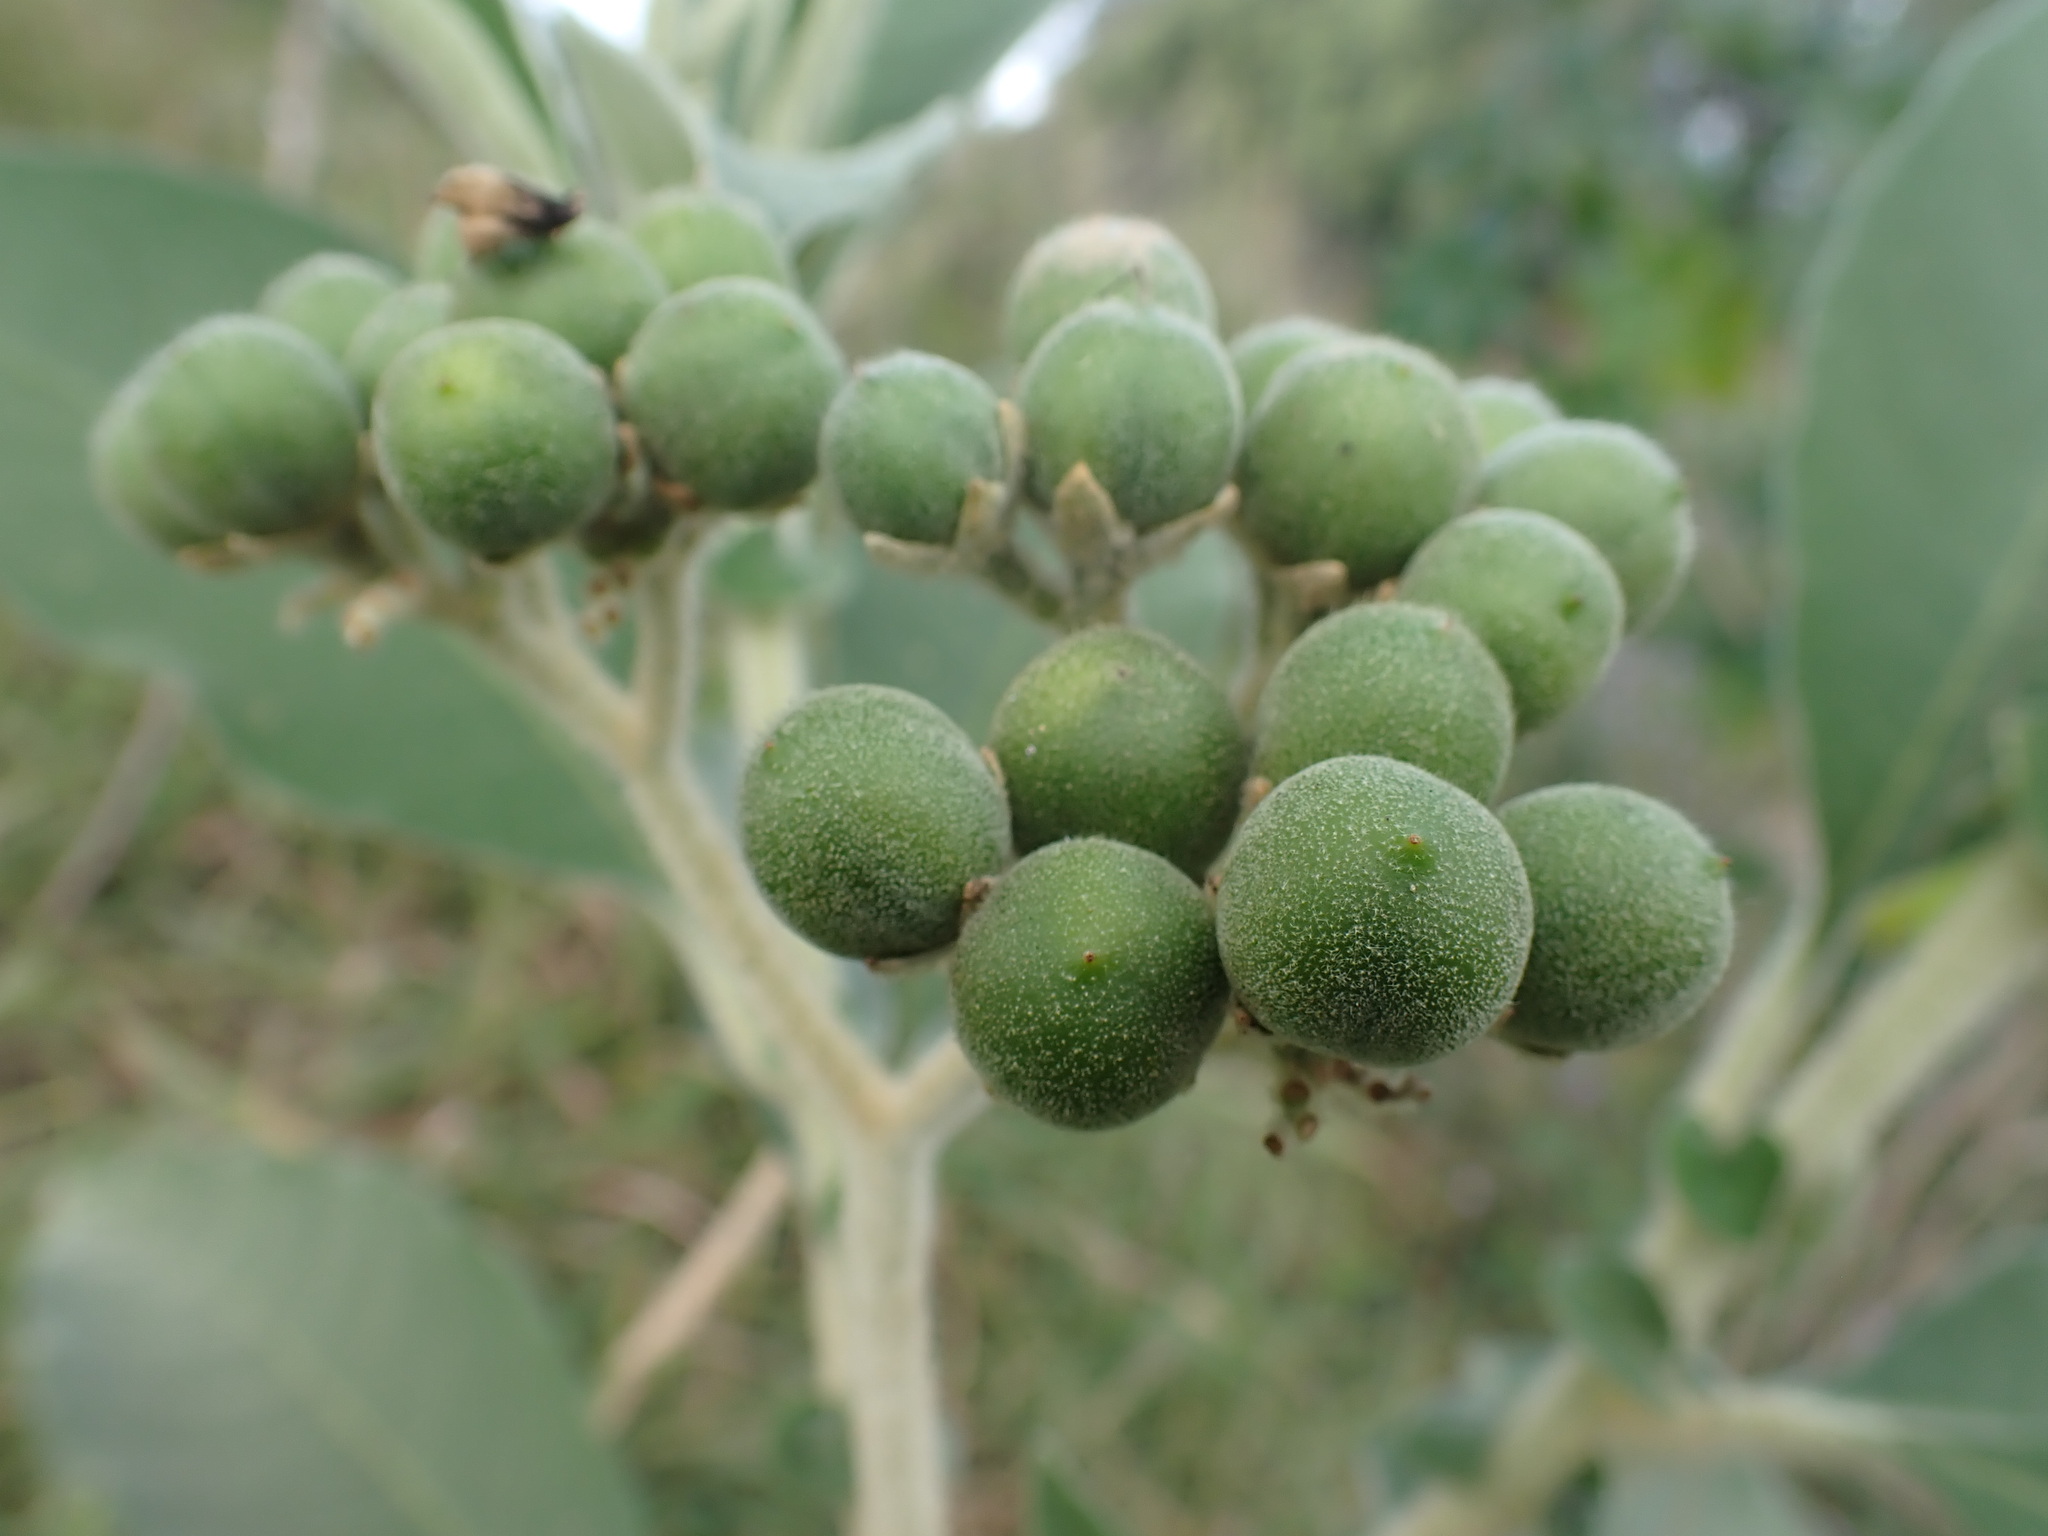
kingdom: Plantae
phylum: Tracheophyta
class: Magnoliopsida
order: Solanales
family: Solanaceae
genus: Solanum
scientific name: Solanum mauritianum
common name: Earleaf nightshade
